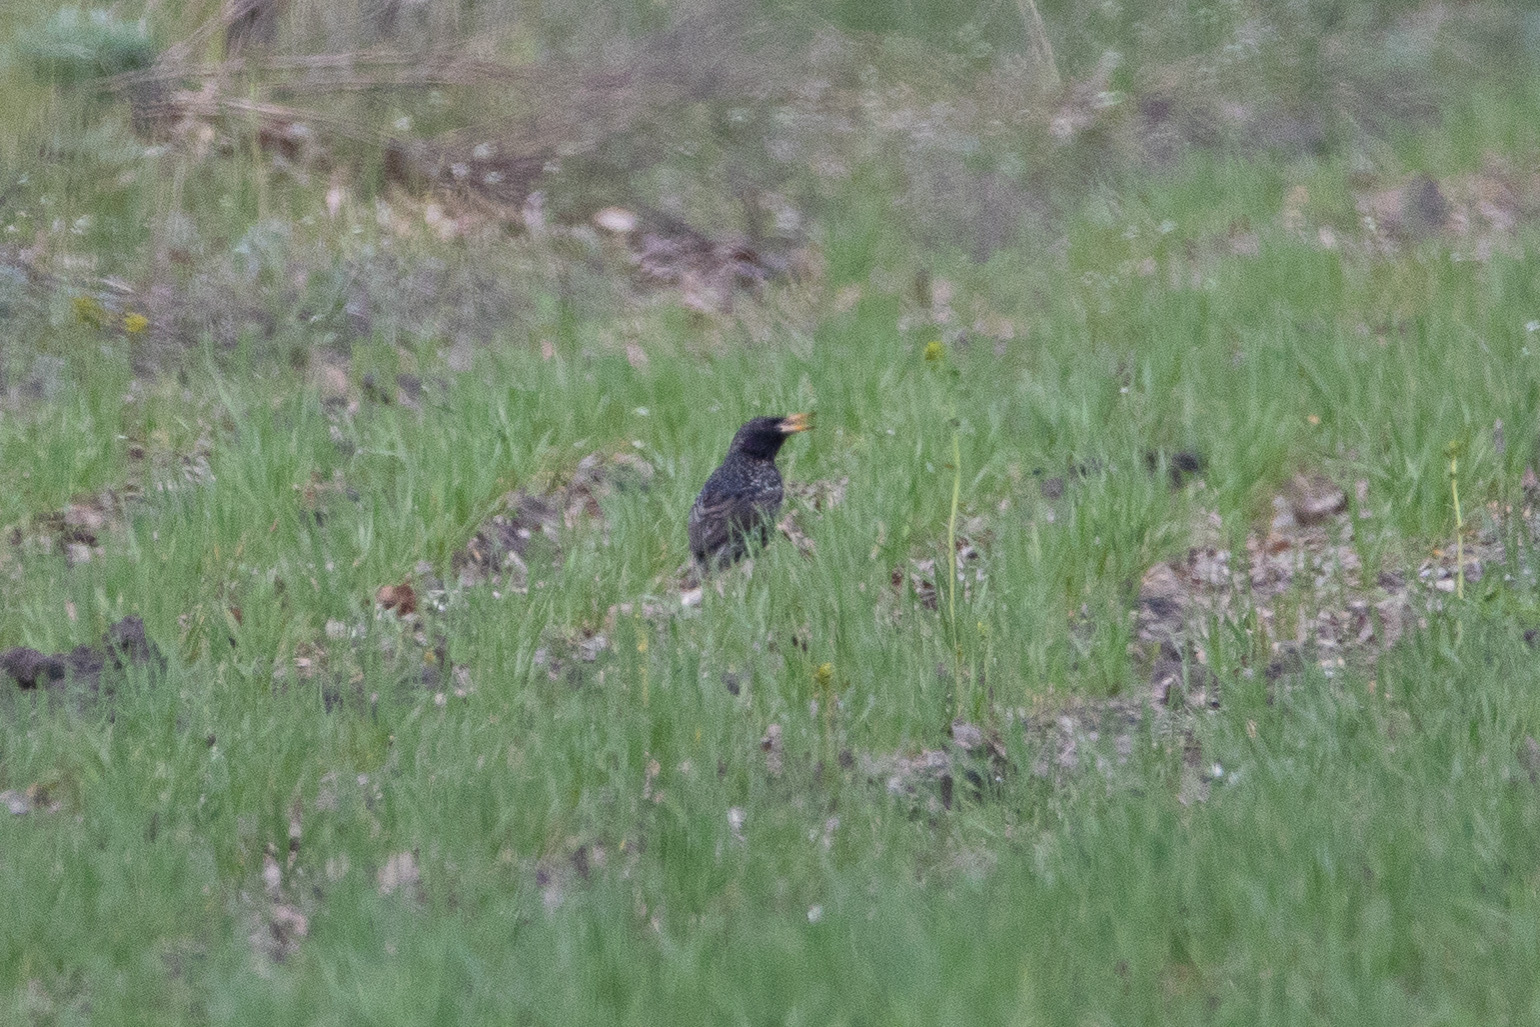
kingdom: Animalia
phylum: Chordata
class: Aves
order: Passeriformes
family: Sturnidae
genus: Sturnus
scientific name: Sturnus vulgaris
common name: Common starling
